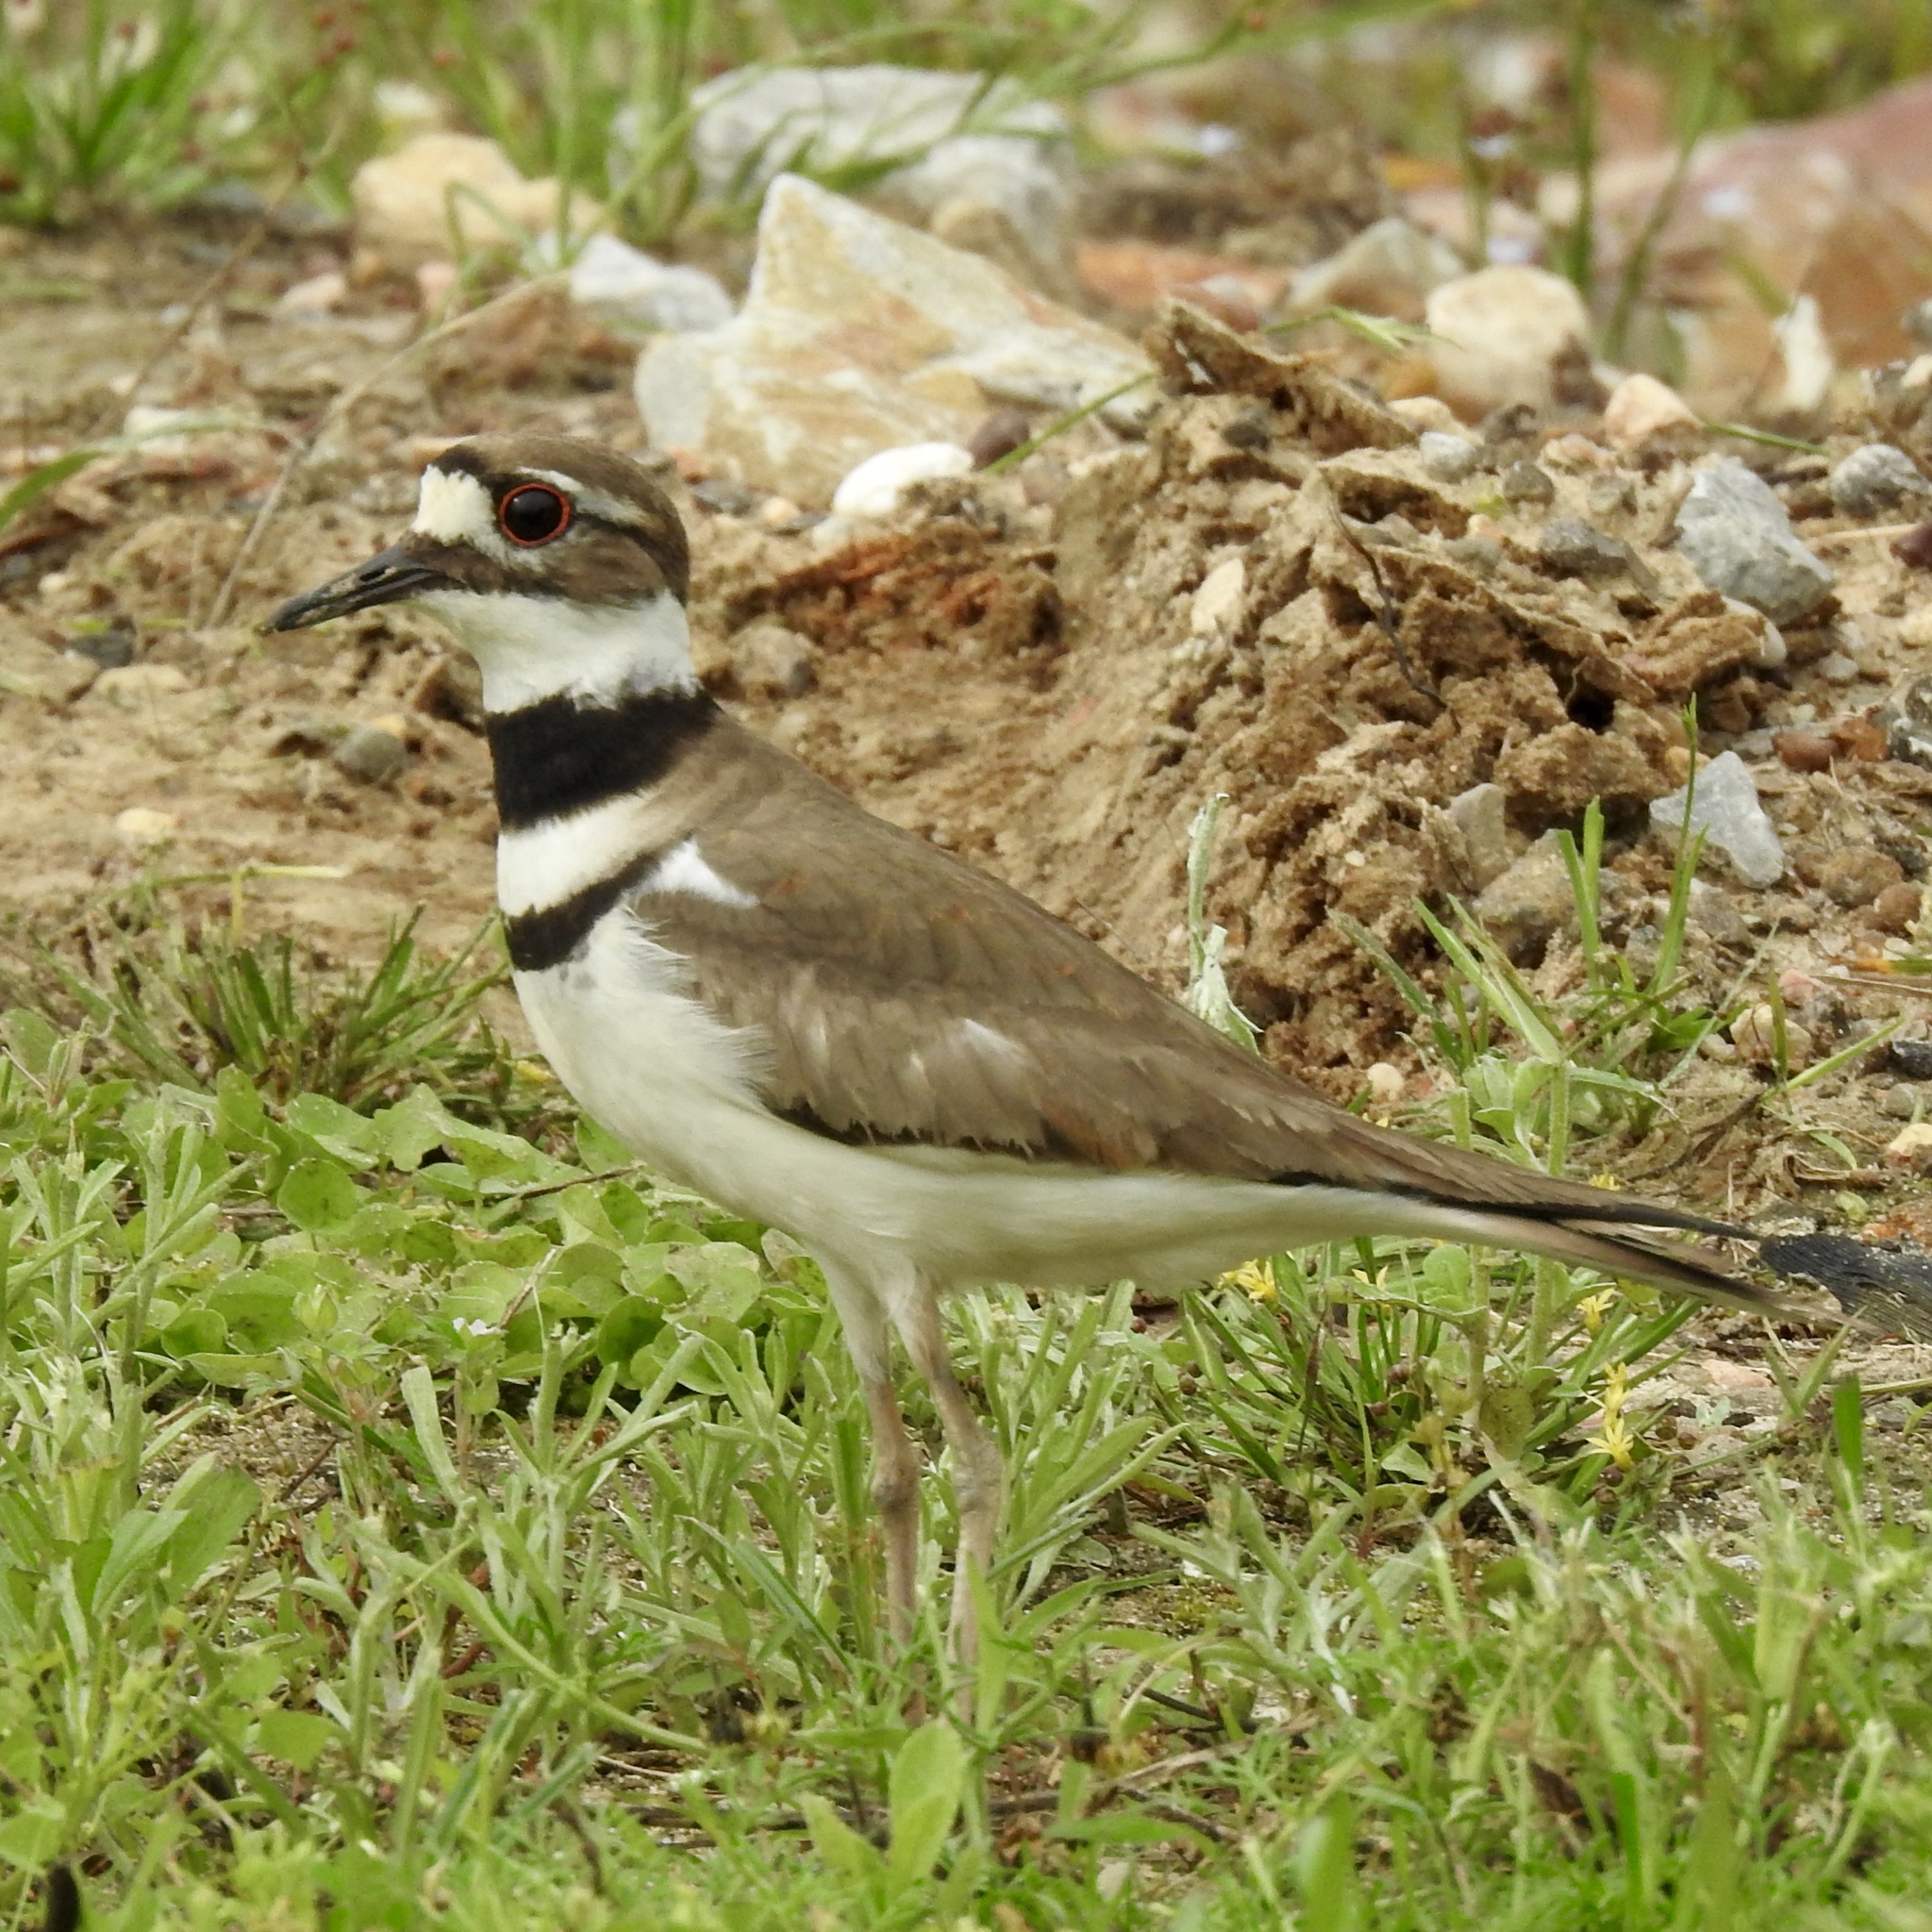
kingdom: Animalia
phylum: Chordata
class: Aves
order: Charadriiformes
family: Charadriidae
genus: Charadrius
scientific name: Charadrius vociferus
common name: Killdeer
